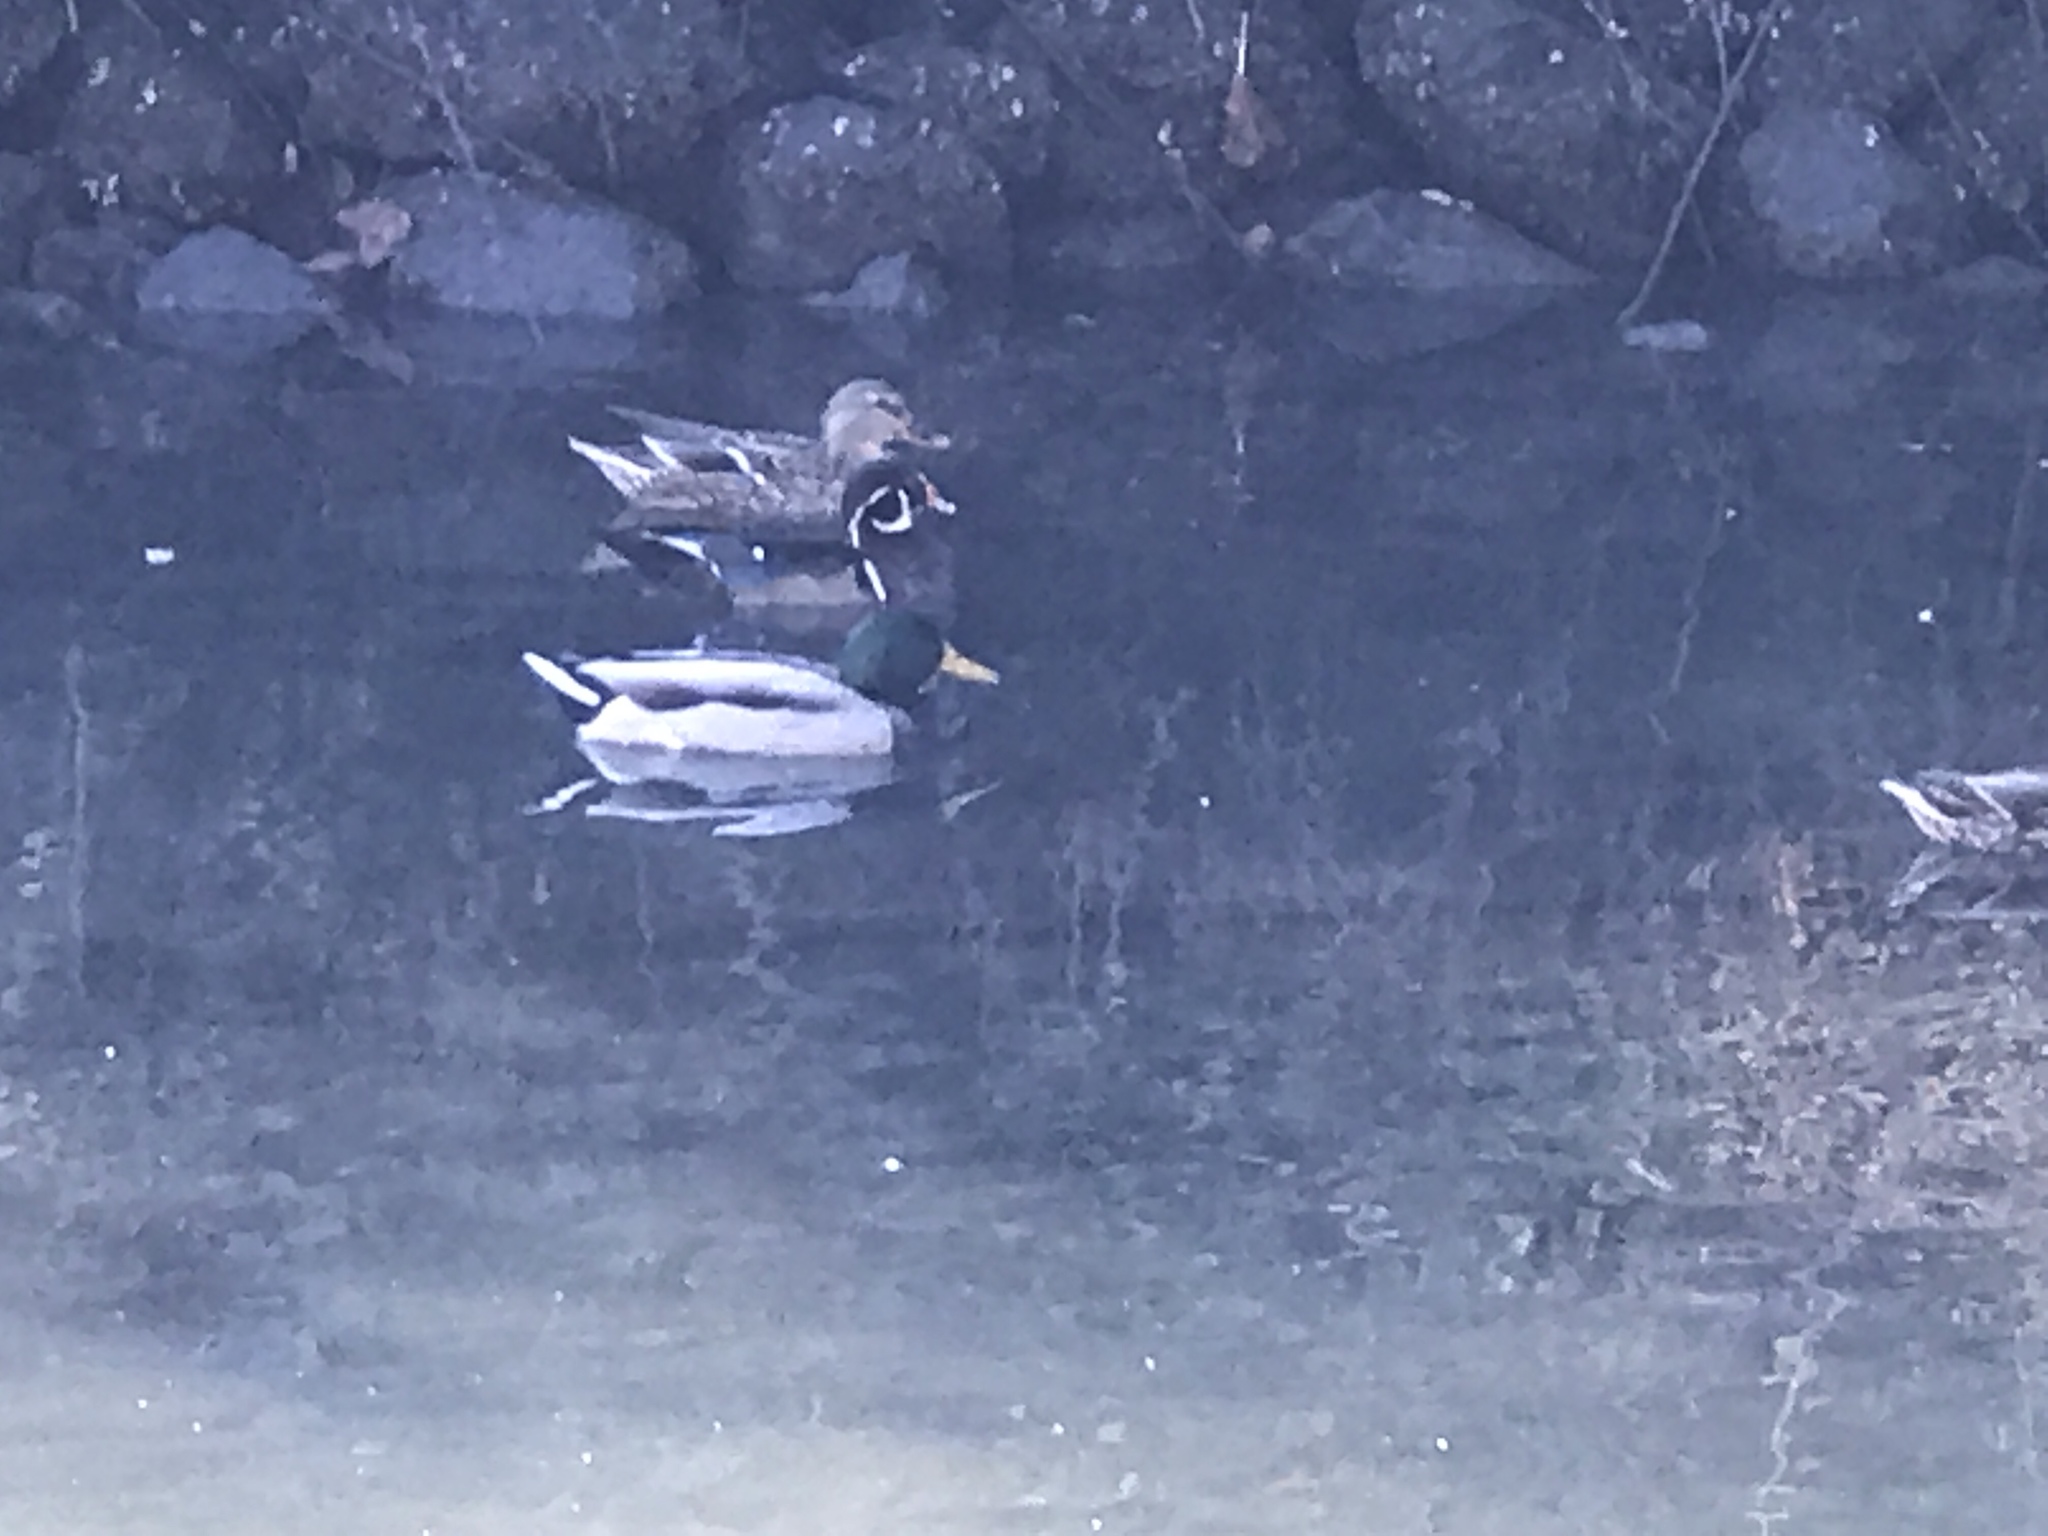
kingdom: Animalia
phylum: Chordata
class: Aves
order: Anseriformes
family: Anatidae
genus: Aix
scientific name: Aix sponsa
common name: Wood duck
